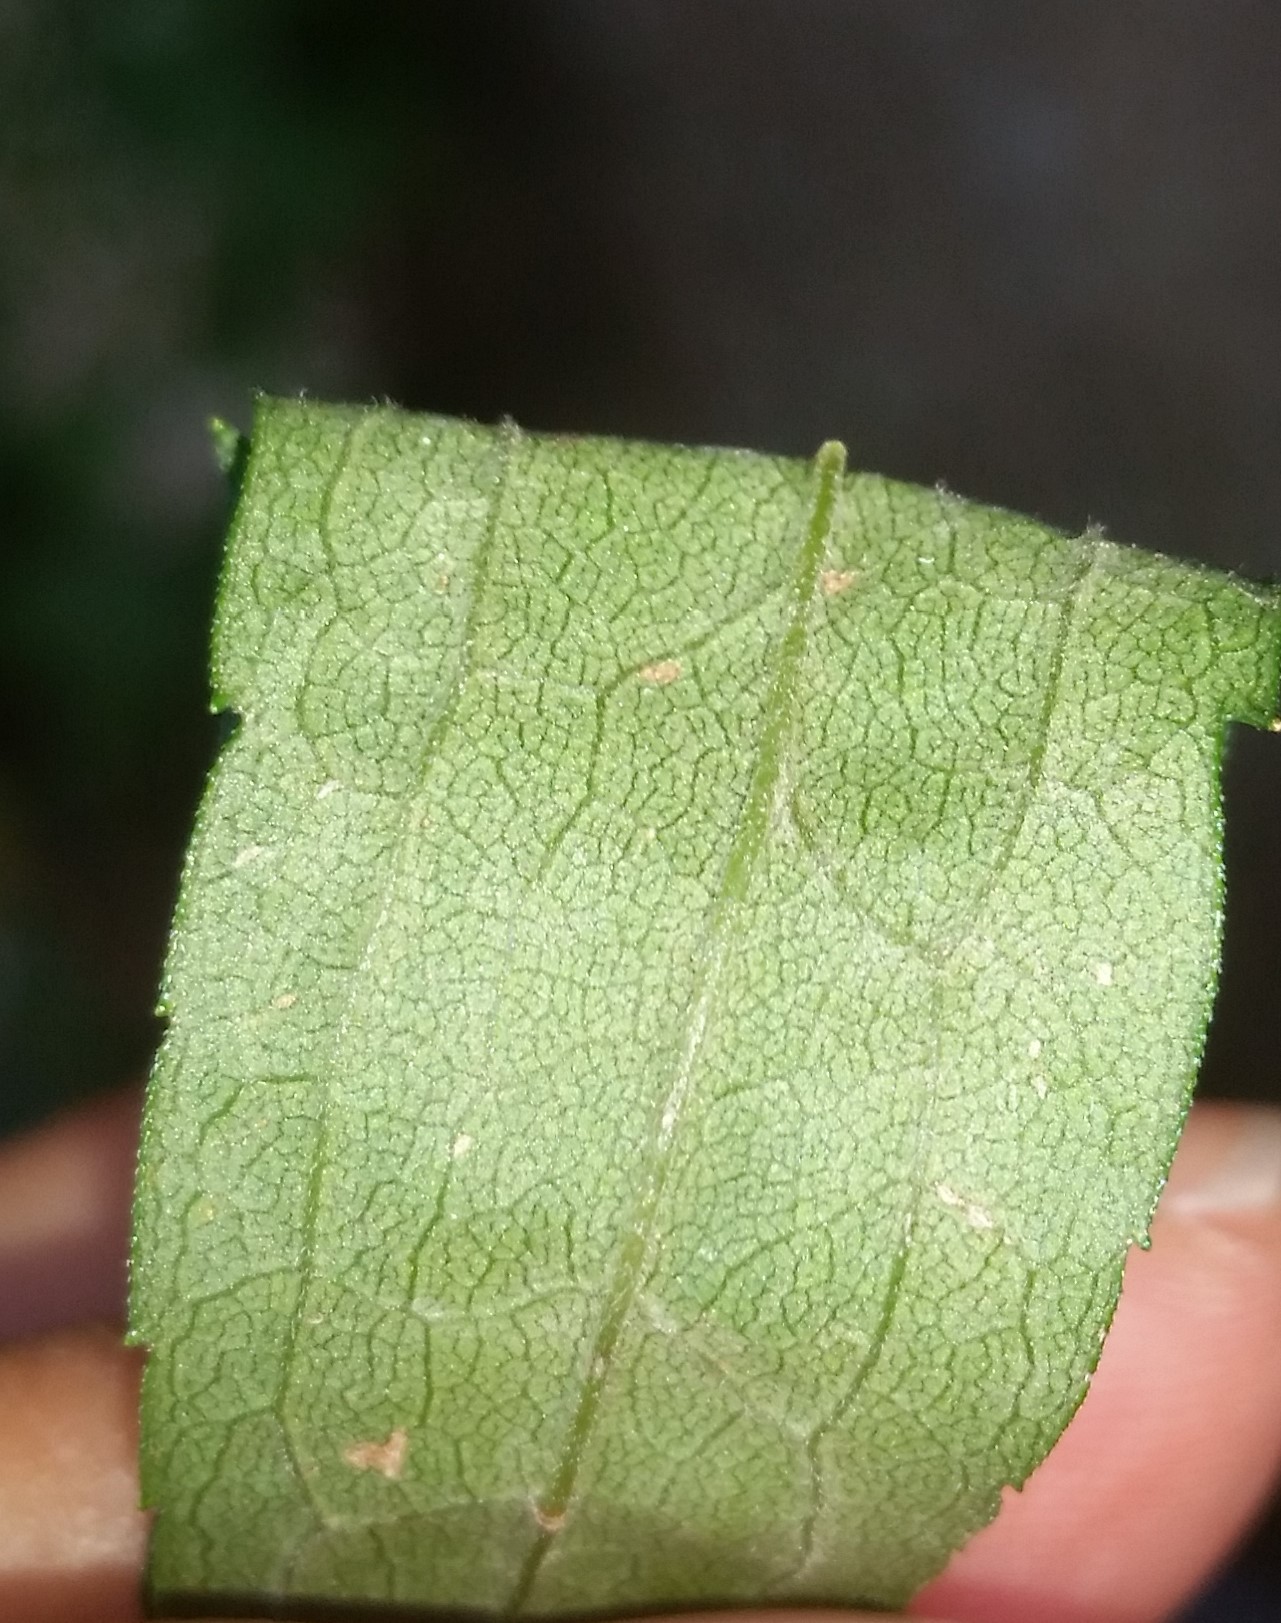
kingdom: Plantae
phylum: Tracheophyta
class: Magnoliopsida
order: Asterales
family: Asteraceae
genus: Solidago
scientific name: Solidago canadensis
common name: Canada goldenrod
